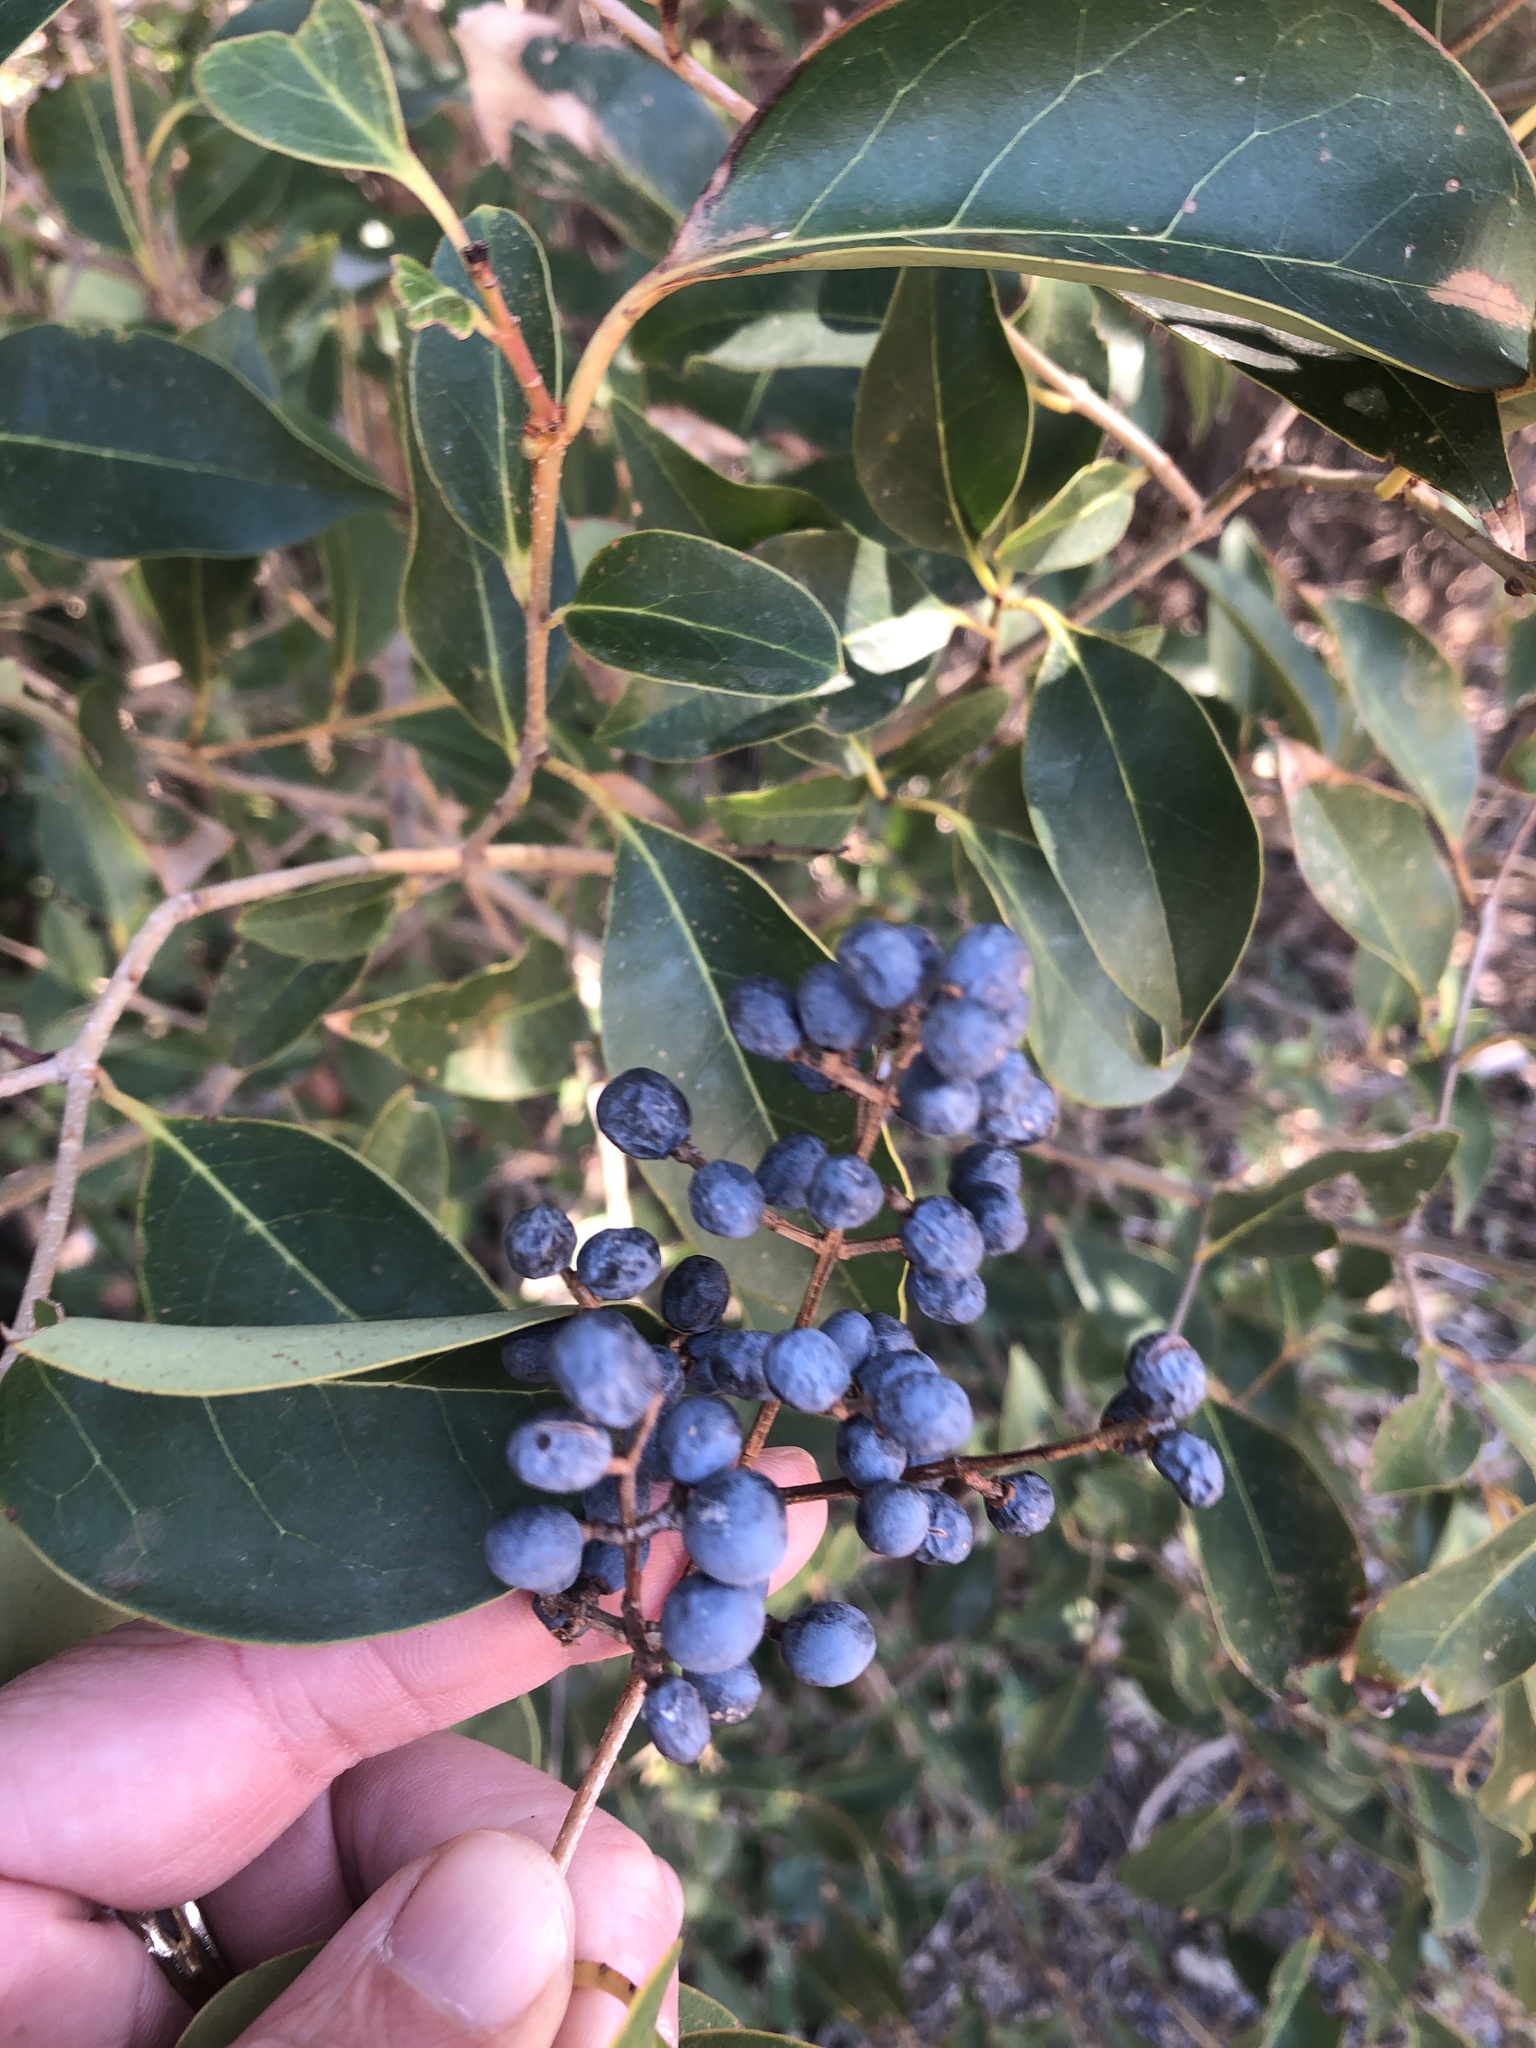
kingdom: Plantae
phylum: Tracheophyta
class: Magnoliopsida
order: Lamiales
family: Oleaceae
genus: Ligustrum
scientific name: Ligustrum lucidum
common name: Glossy privet
